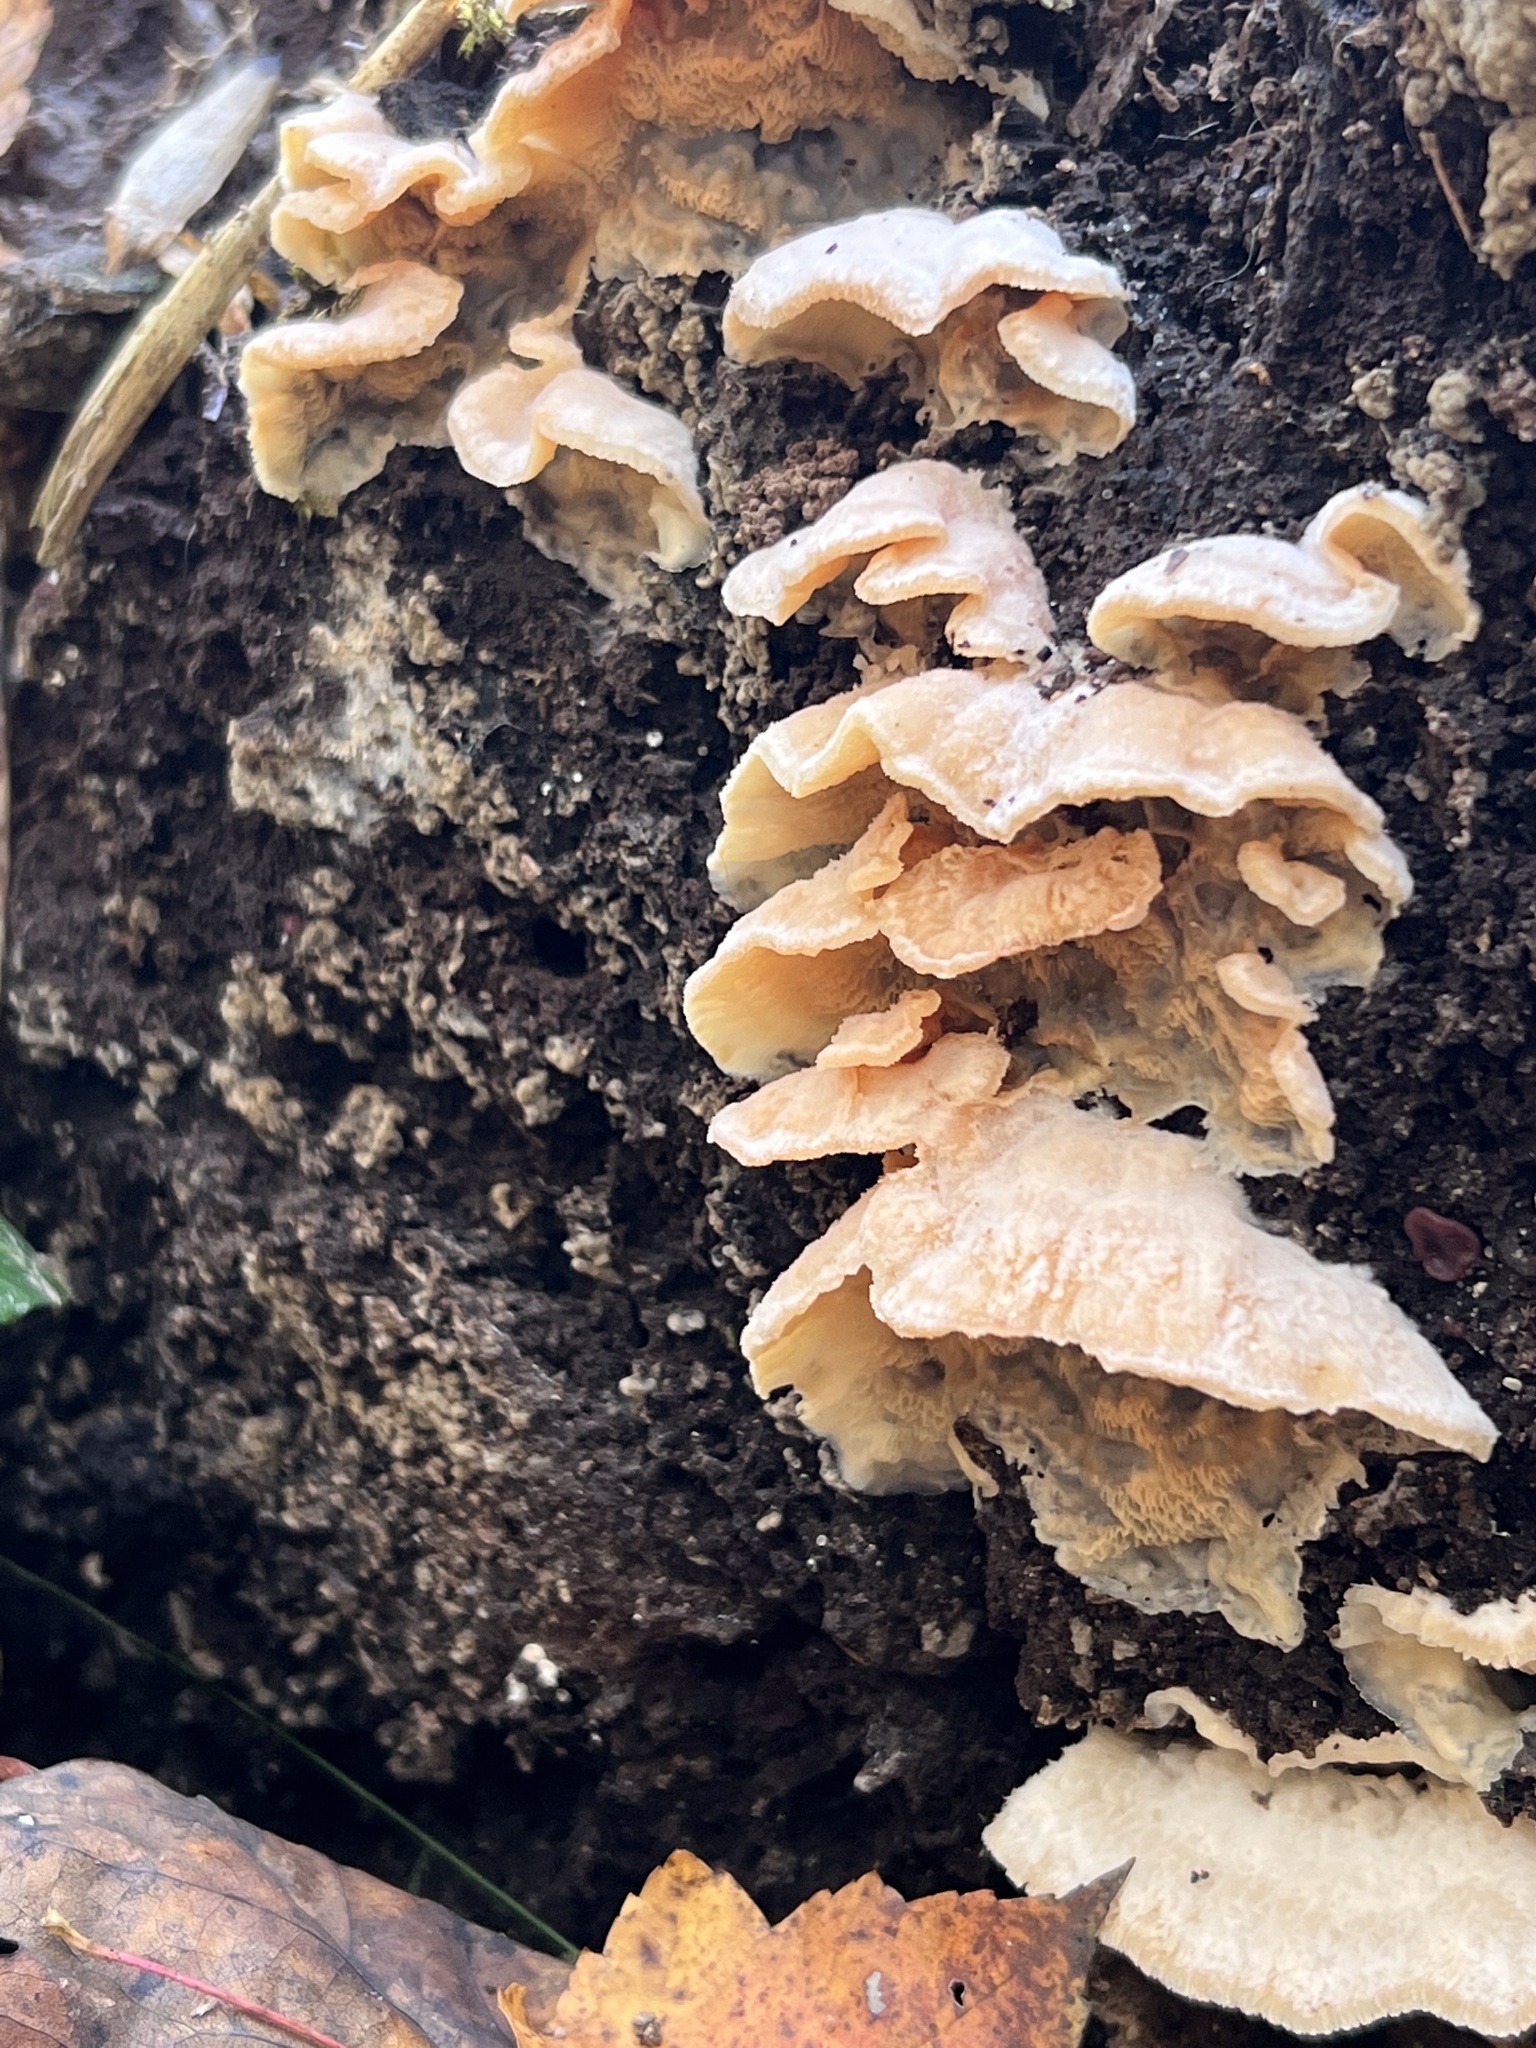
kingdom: Fungi
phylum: Basidiomycota
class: Agaricomycetes
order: Polyporales
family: Meruliaceae
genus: Phlebia
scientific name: Phlebia tremellosa
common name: Jelly rot
